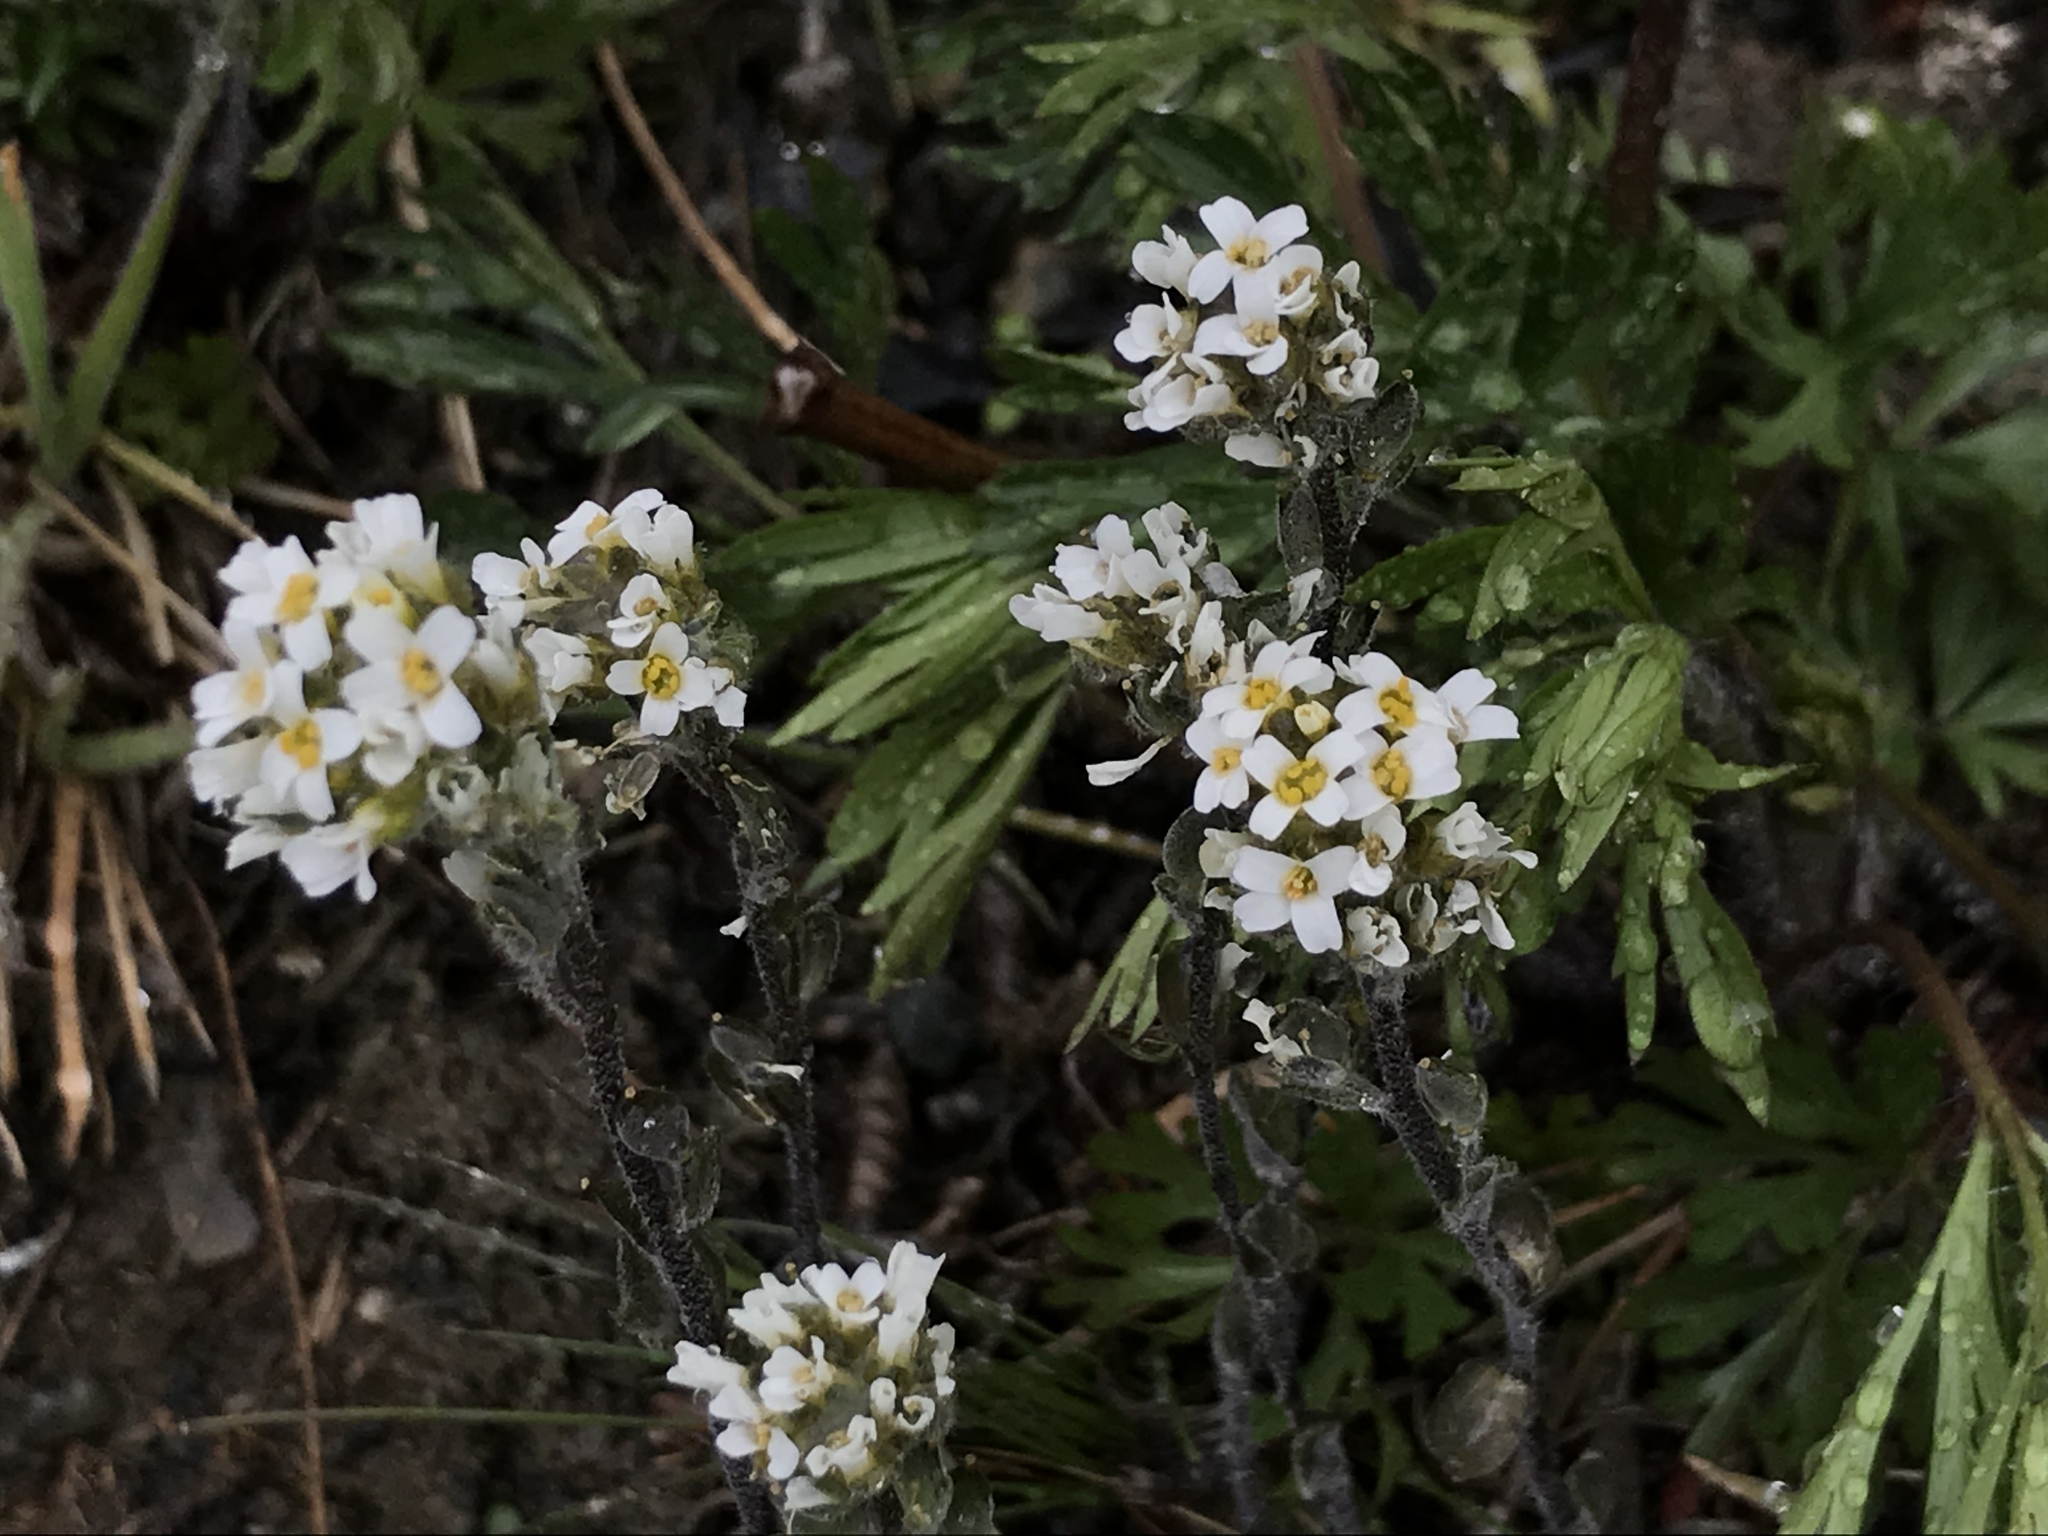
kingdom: Plantae
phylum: Tracheophyta
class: Magnoliopsida
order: Brassicales
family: Brassicaceae
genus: Draba
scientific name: Draba gilliesii
